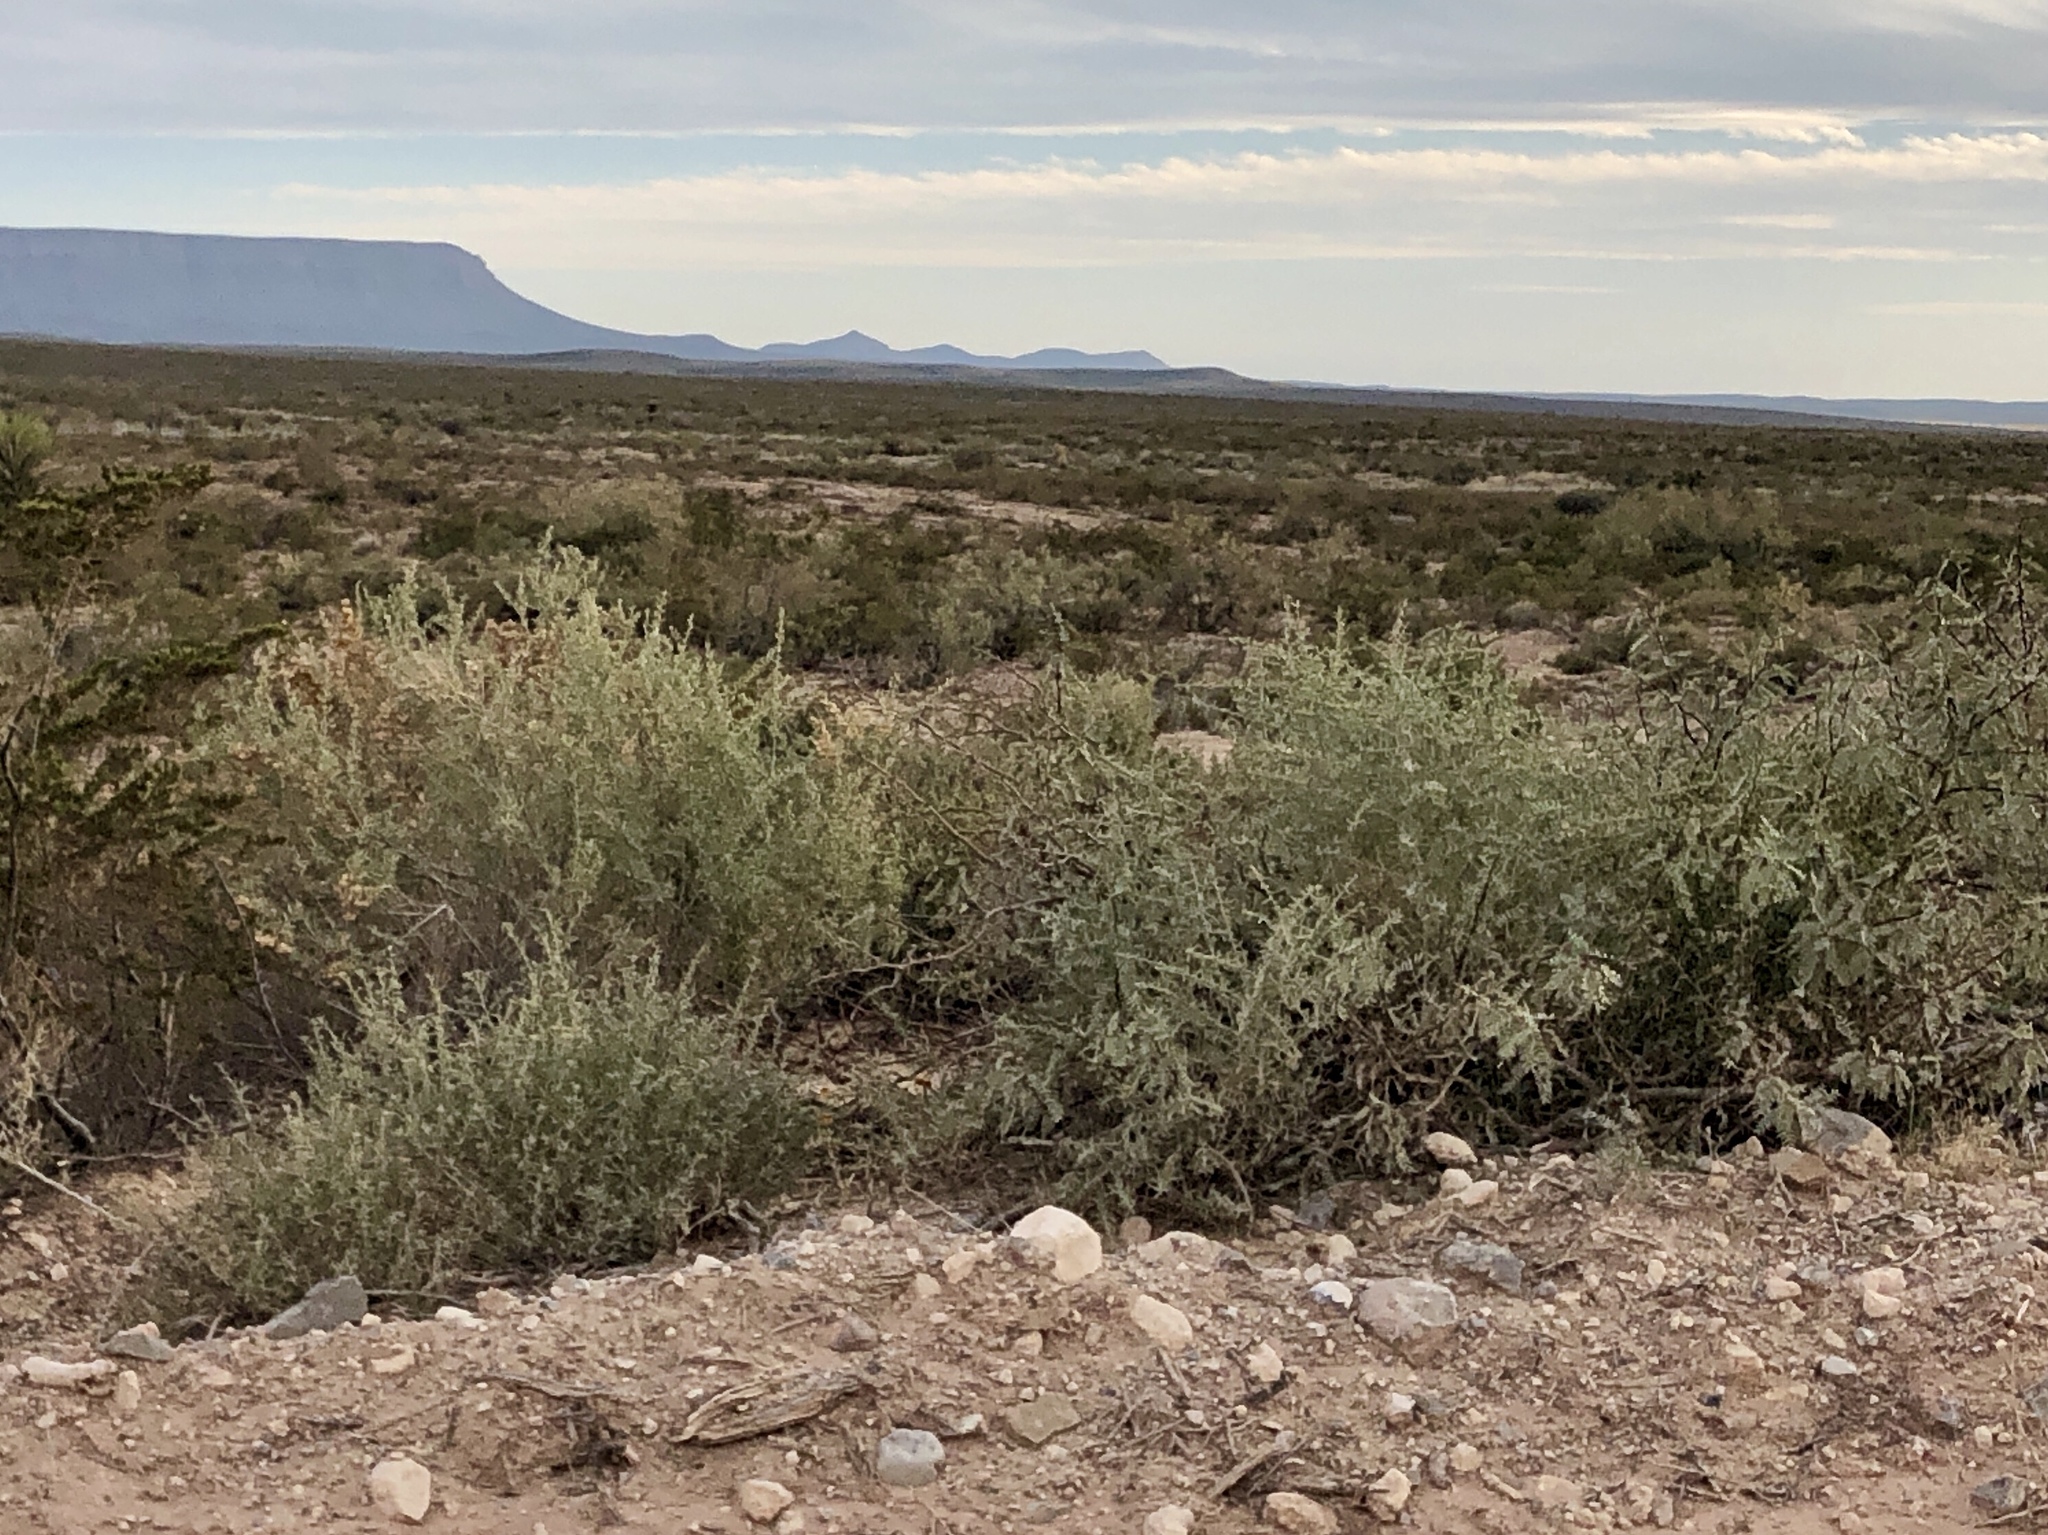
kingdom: Plantae
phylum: Tracheophyta
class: Magnoliopsida
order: Caryophyllales
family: Amaranthaceae
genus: Atriplex
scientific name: Atriplex canescens
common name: Four-wing saltbush
